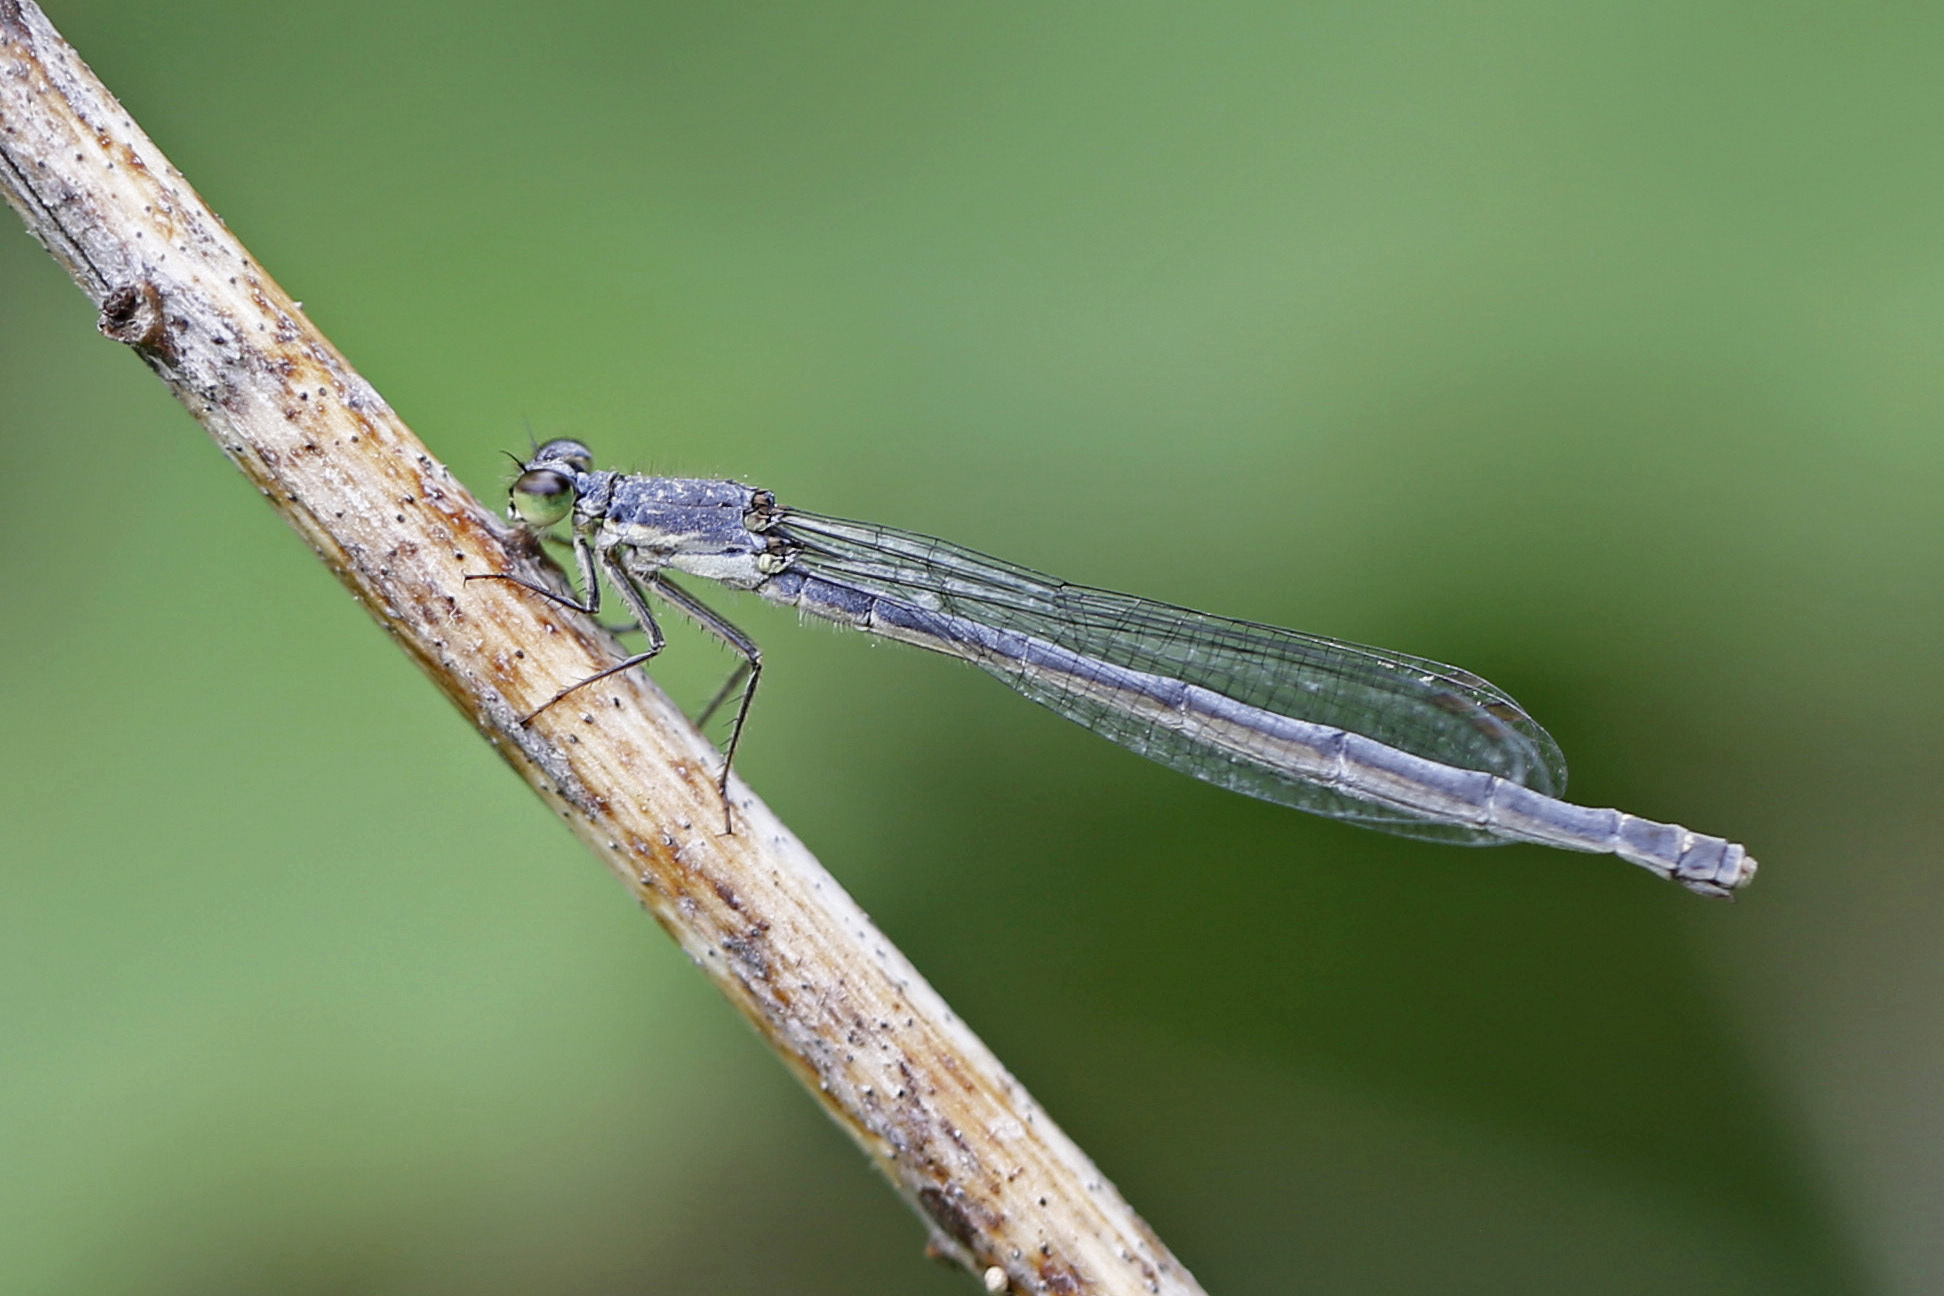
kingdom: Animalia
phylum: Arthropoda
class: Insecta
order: Odonata
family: Coenagrionidae
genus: Ischnura
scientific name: Ischnura posita
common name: Fragile forktail
